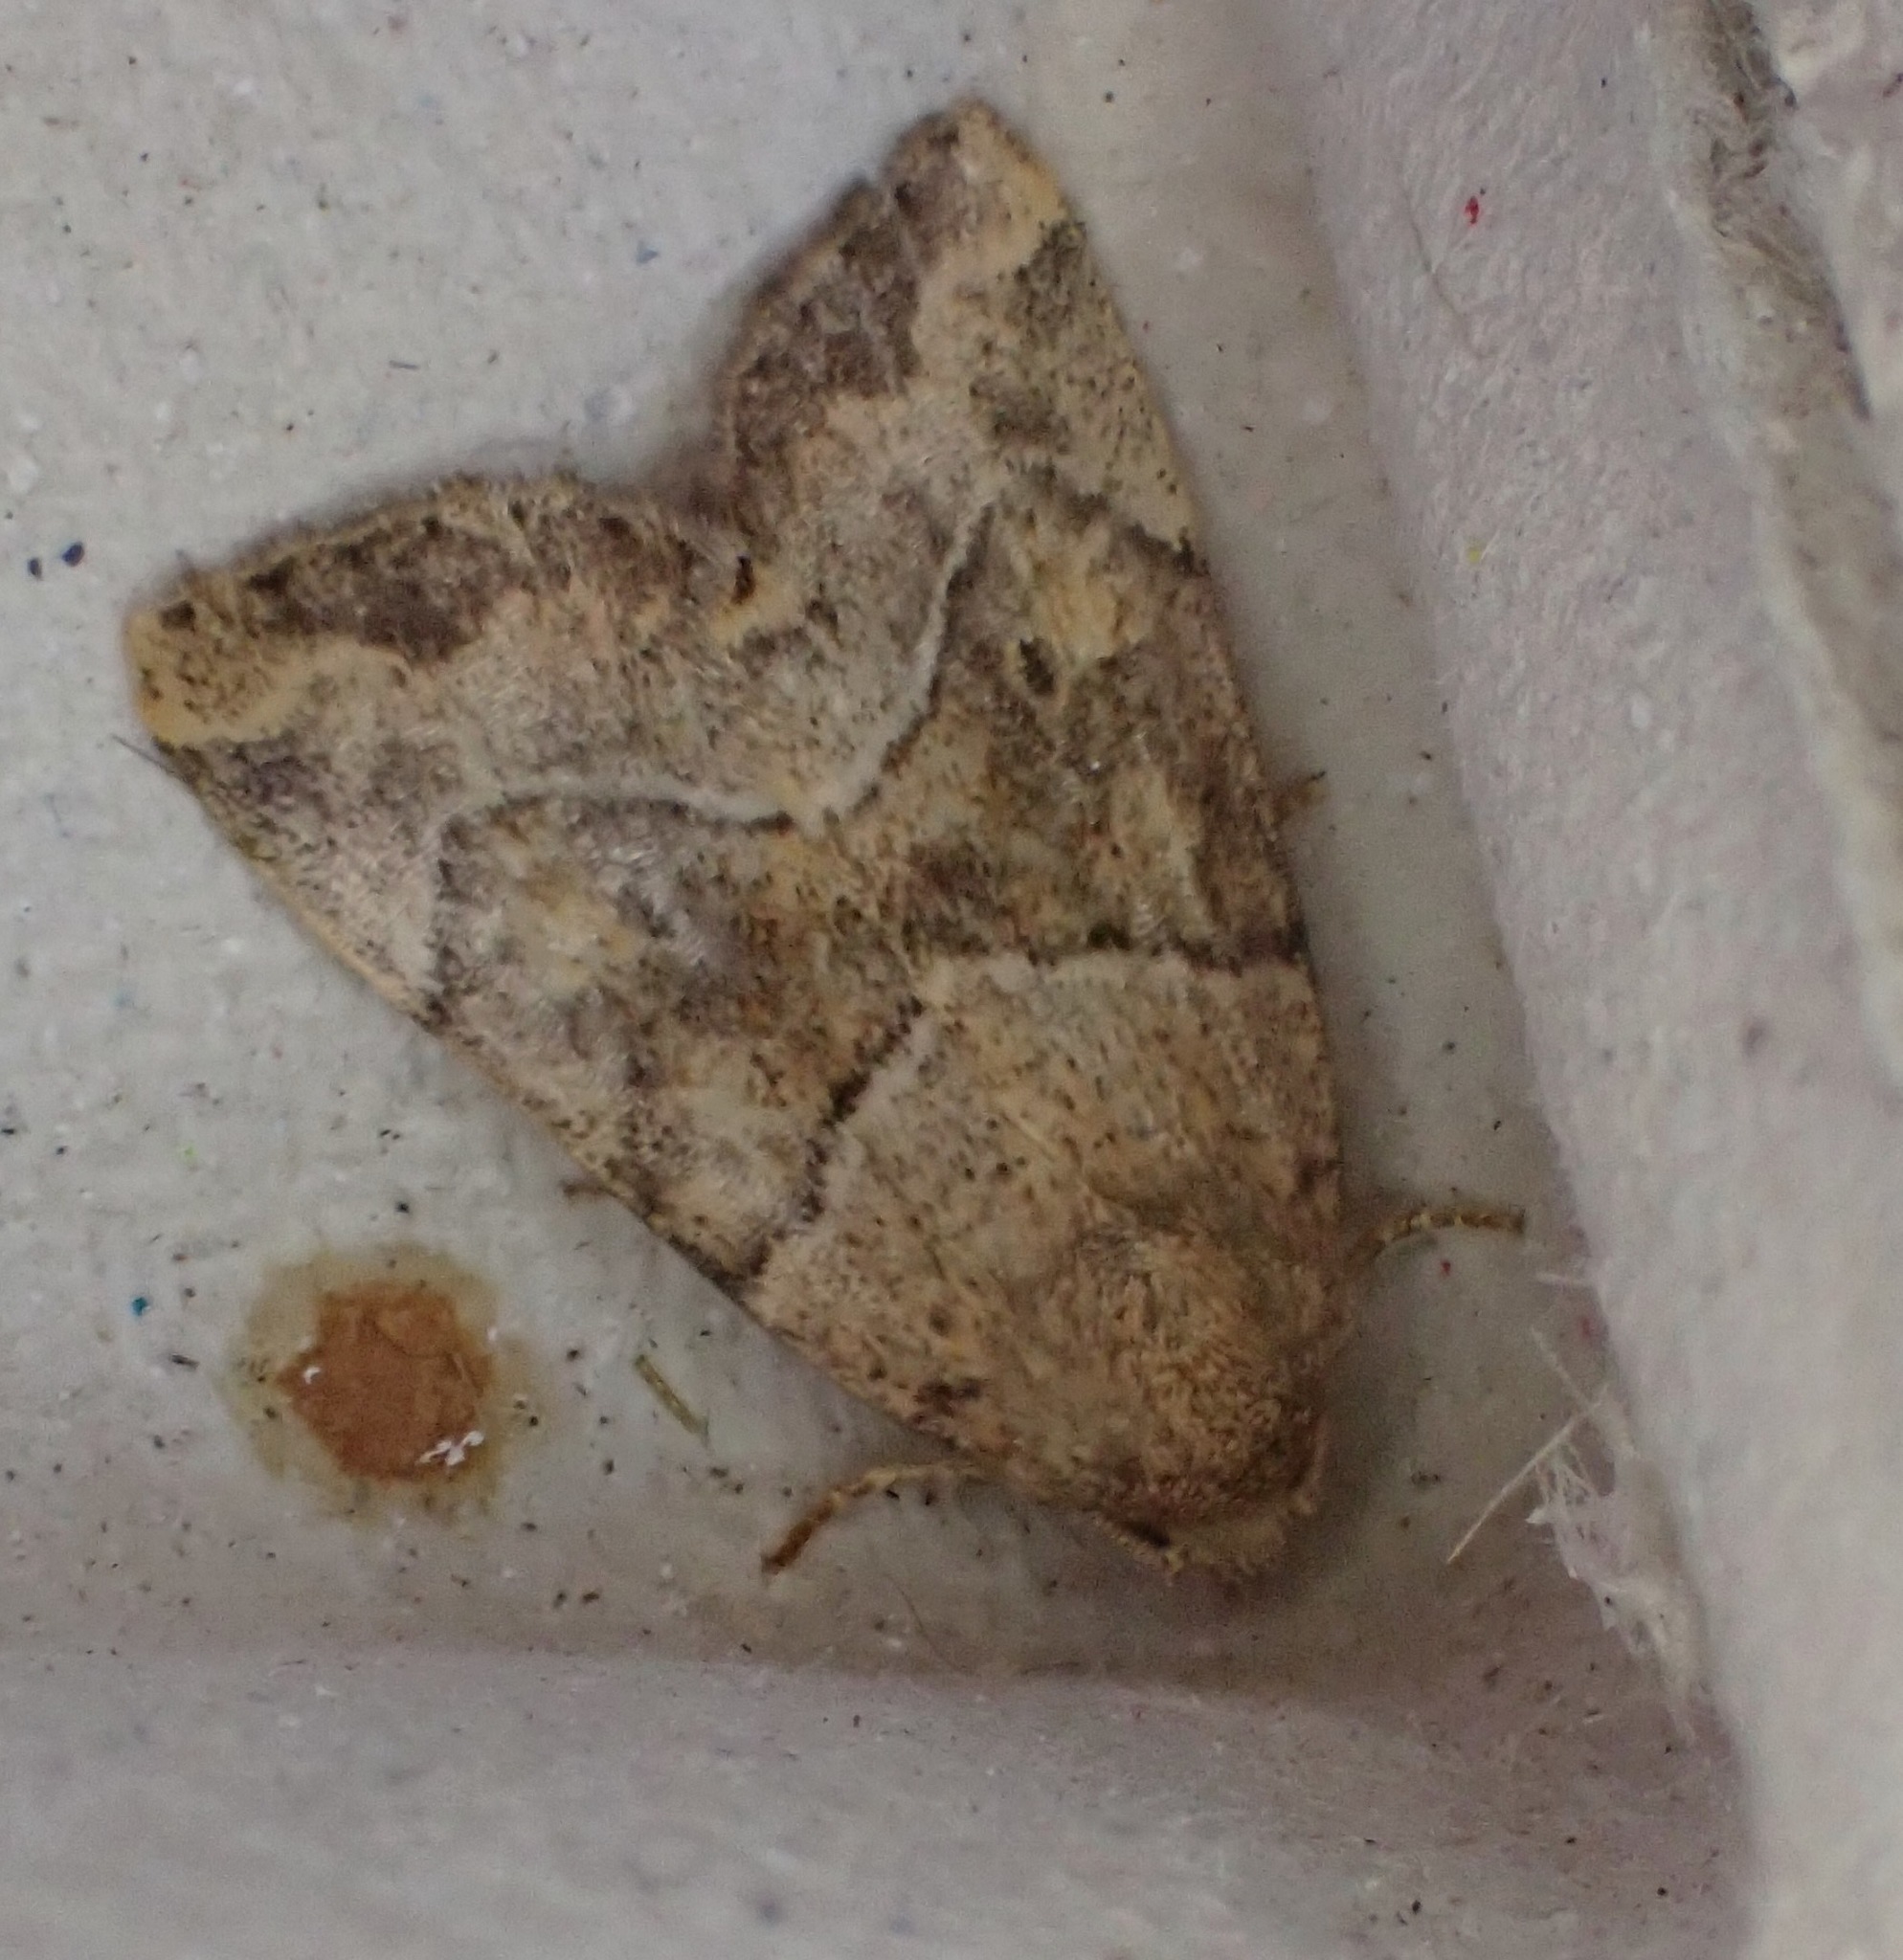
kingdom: Animalia
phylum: Arthropoda
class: Insecta
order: Lepidoptera
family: Noctuidae
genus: Cosmia
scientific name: Cosmia trapezina
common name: Dun-bar
